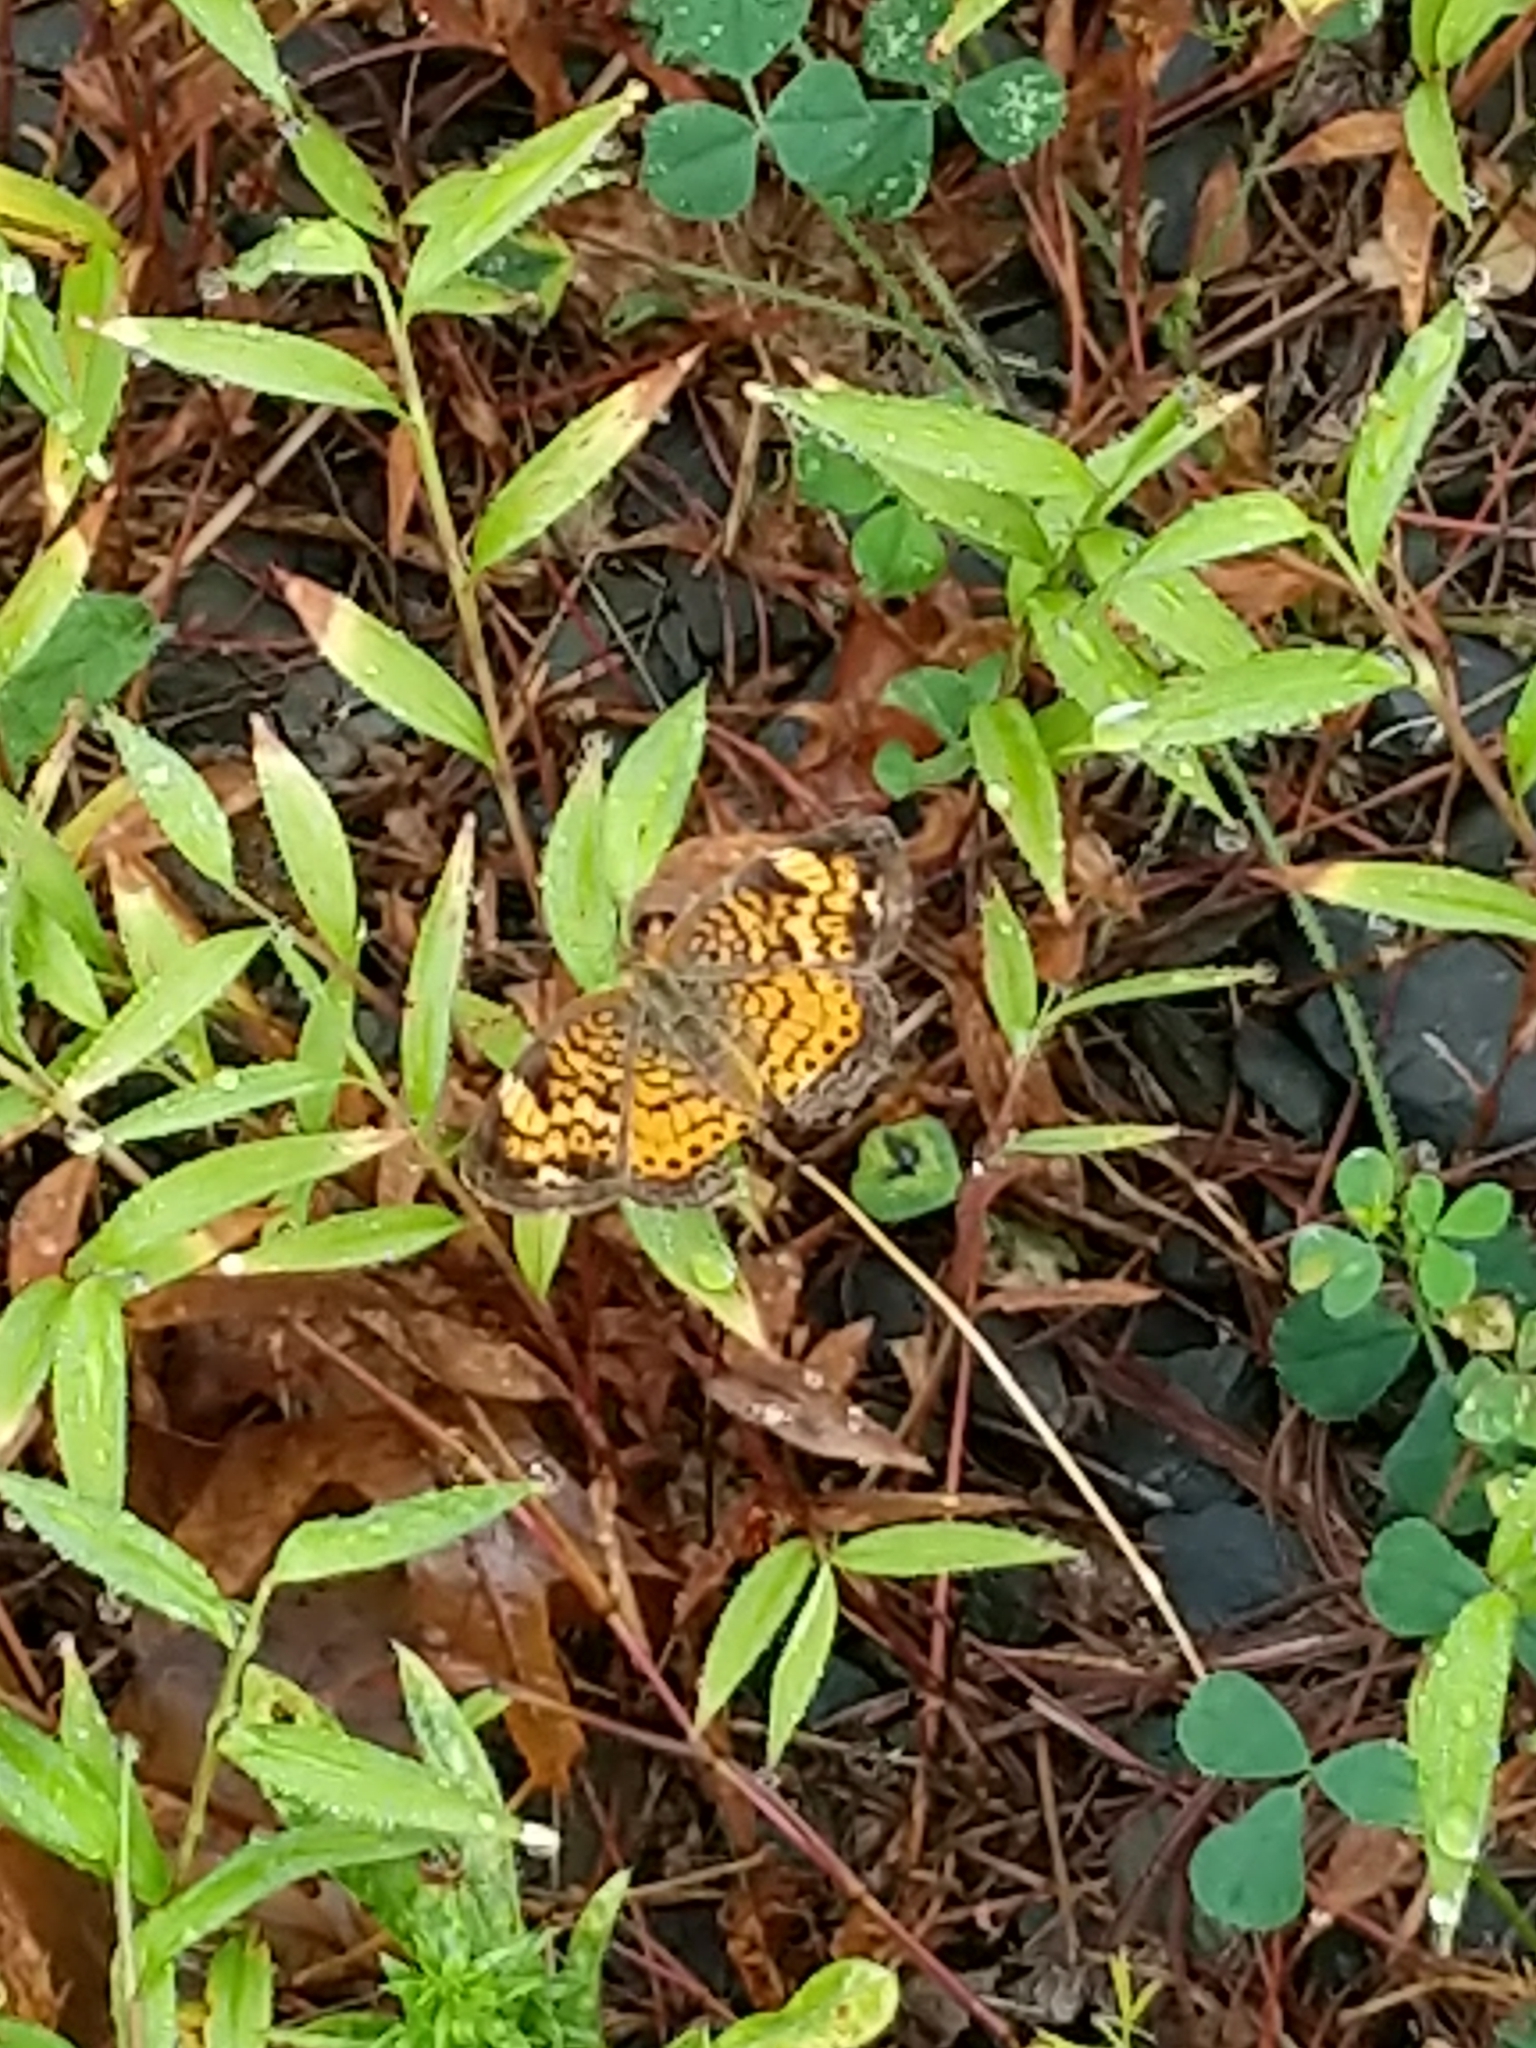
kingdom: Animalia
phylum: Arthropoda
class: Insecta
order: Lepidoptera
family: Nymphalidae
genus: Phyciodes
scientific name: Phyciodes tharos
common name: Pearl crescent
